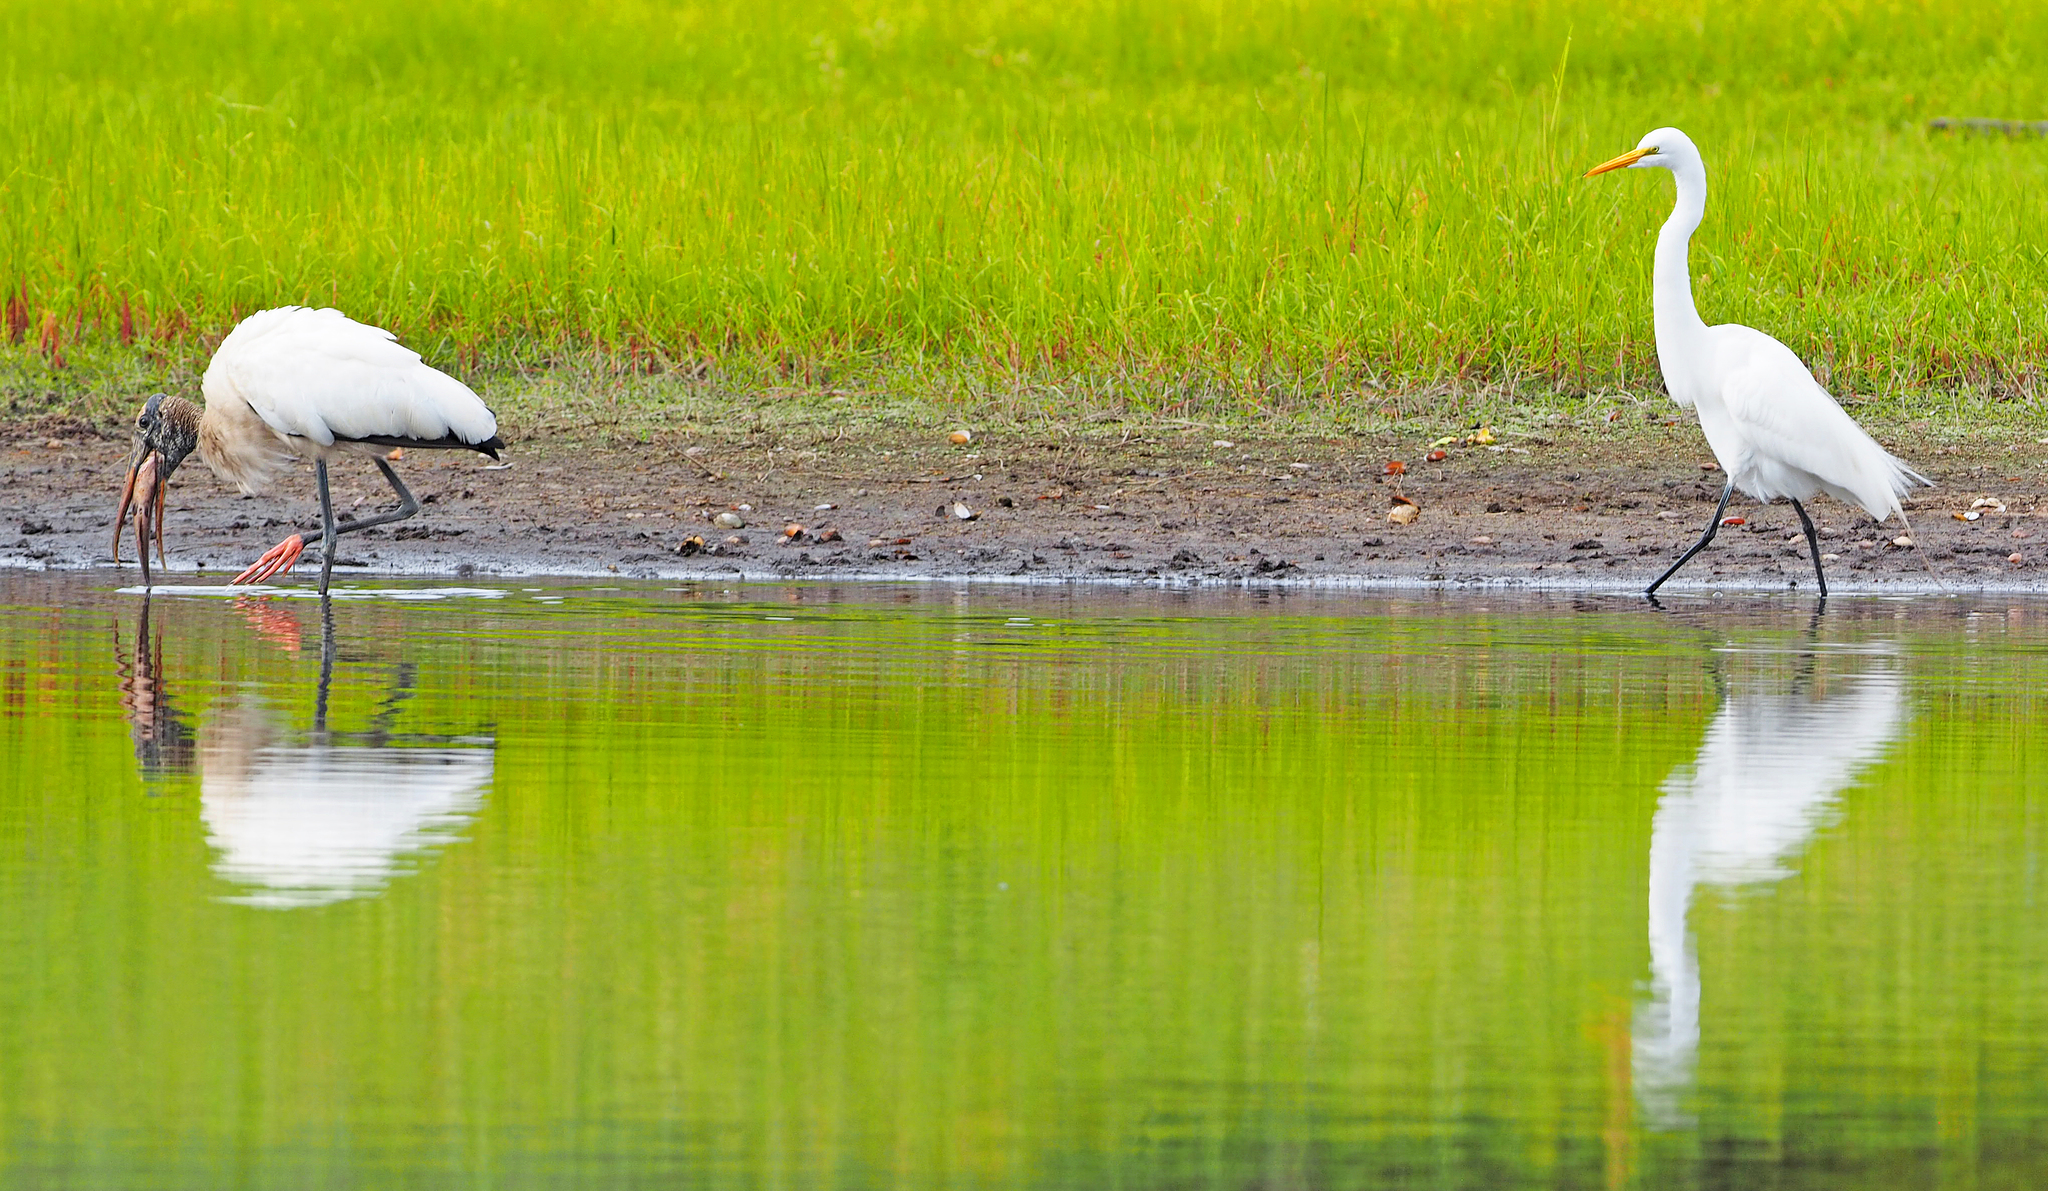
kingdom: Animalia
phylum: Chordata
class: Aves
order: Ciconiiformes
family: Ciconiidae
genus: Mycteria
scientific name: Mycteria americana
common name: Wood stork
